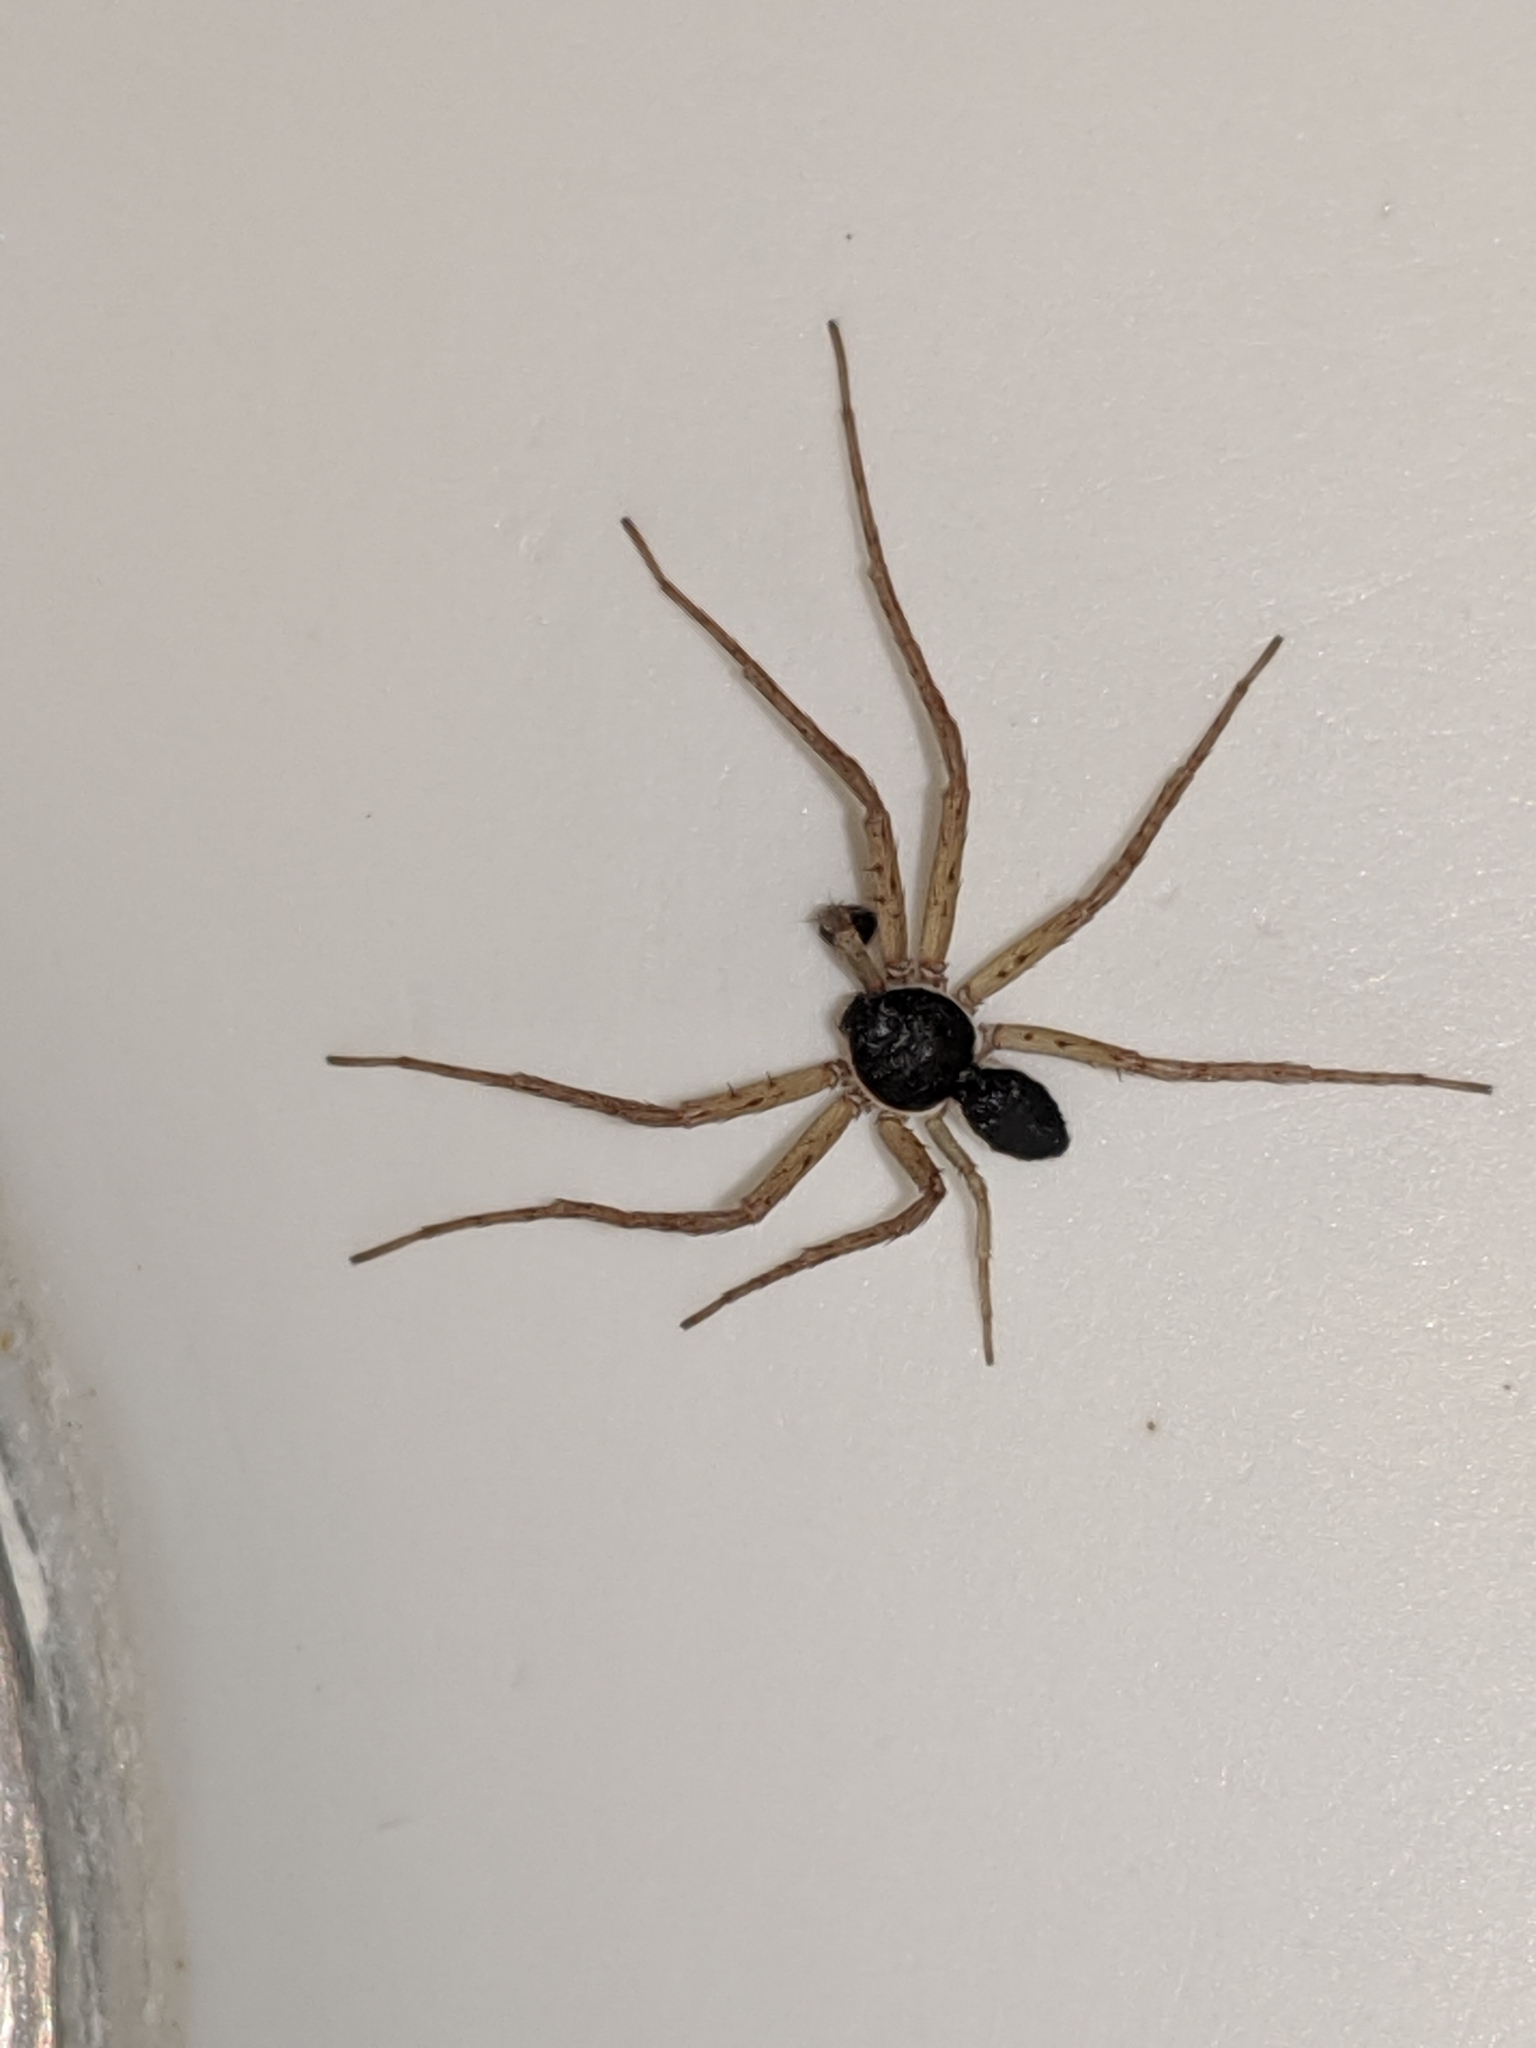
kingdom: Animalia
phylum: Arthropoda
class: Arachnida
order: Araneae
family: Philodromidae
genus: Philodromus
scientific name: Philodromus dispar
